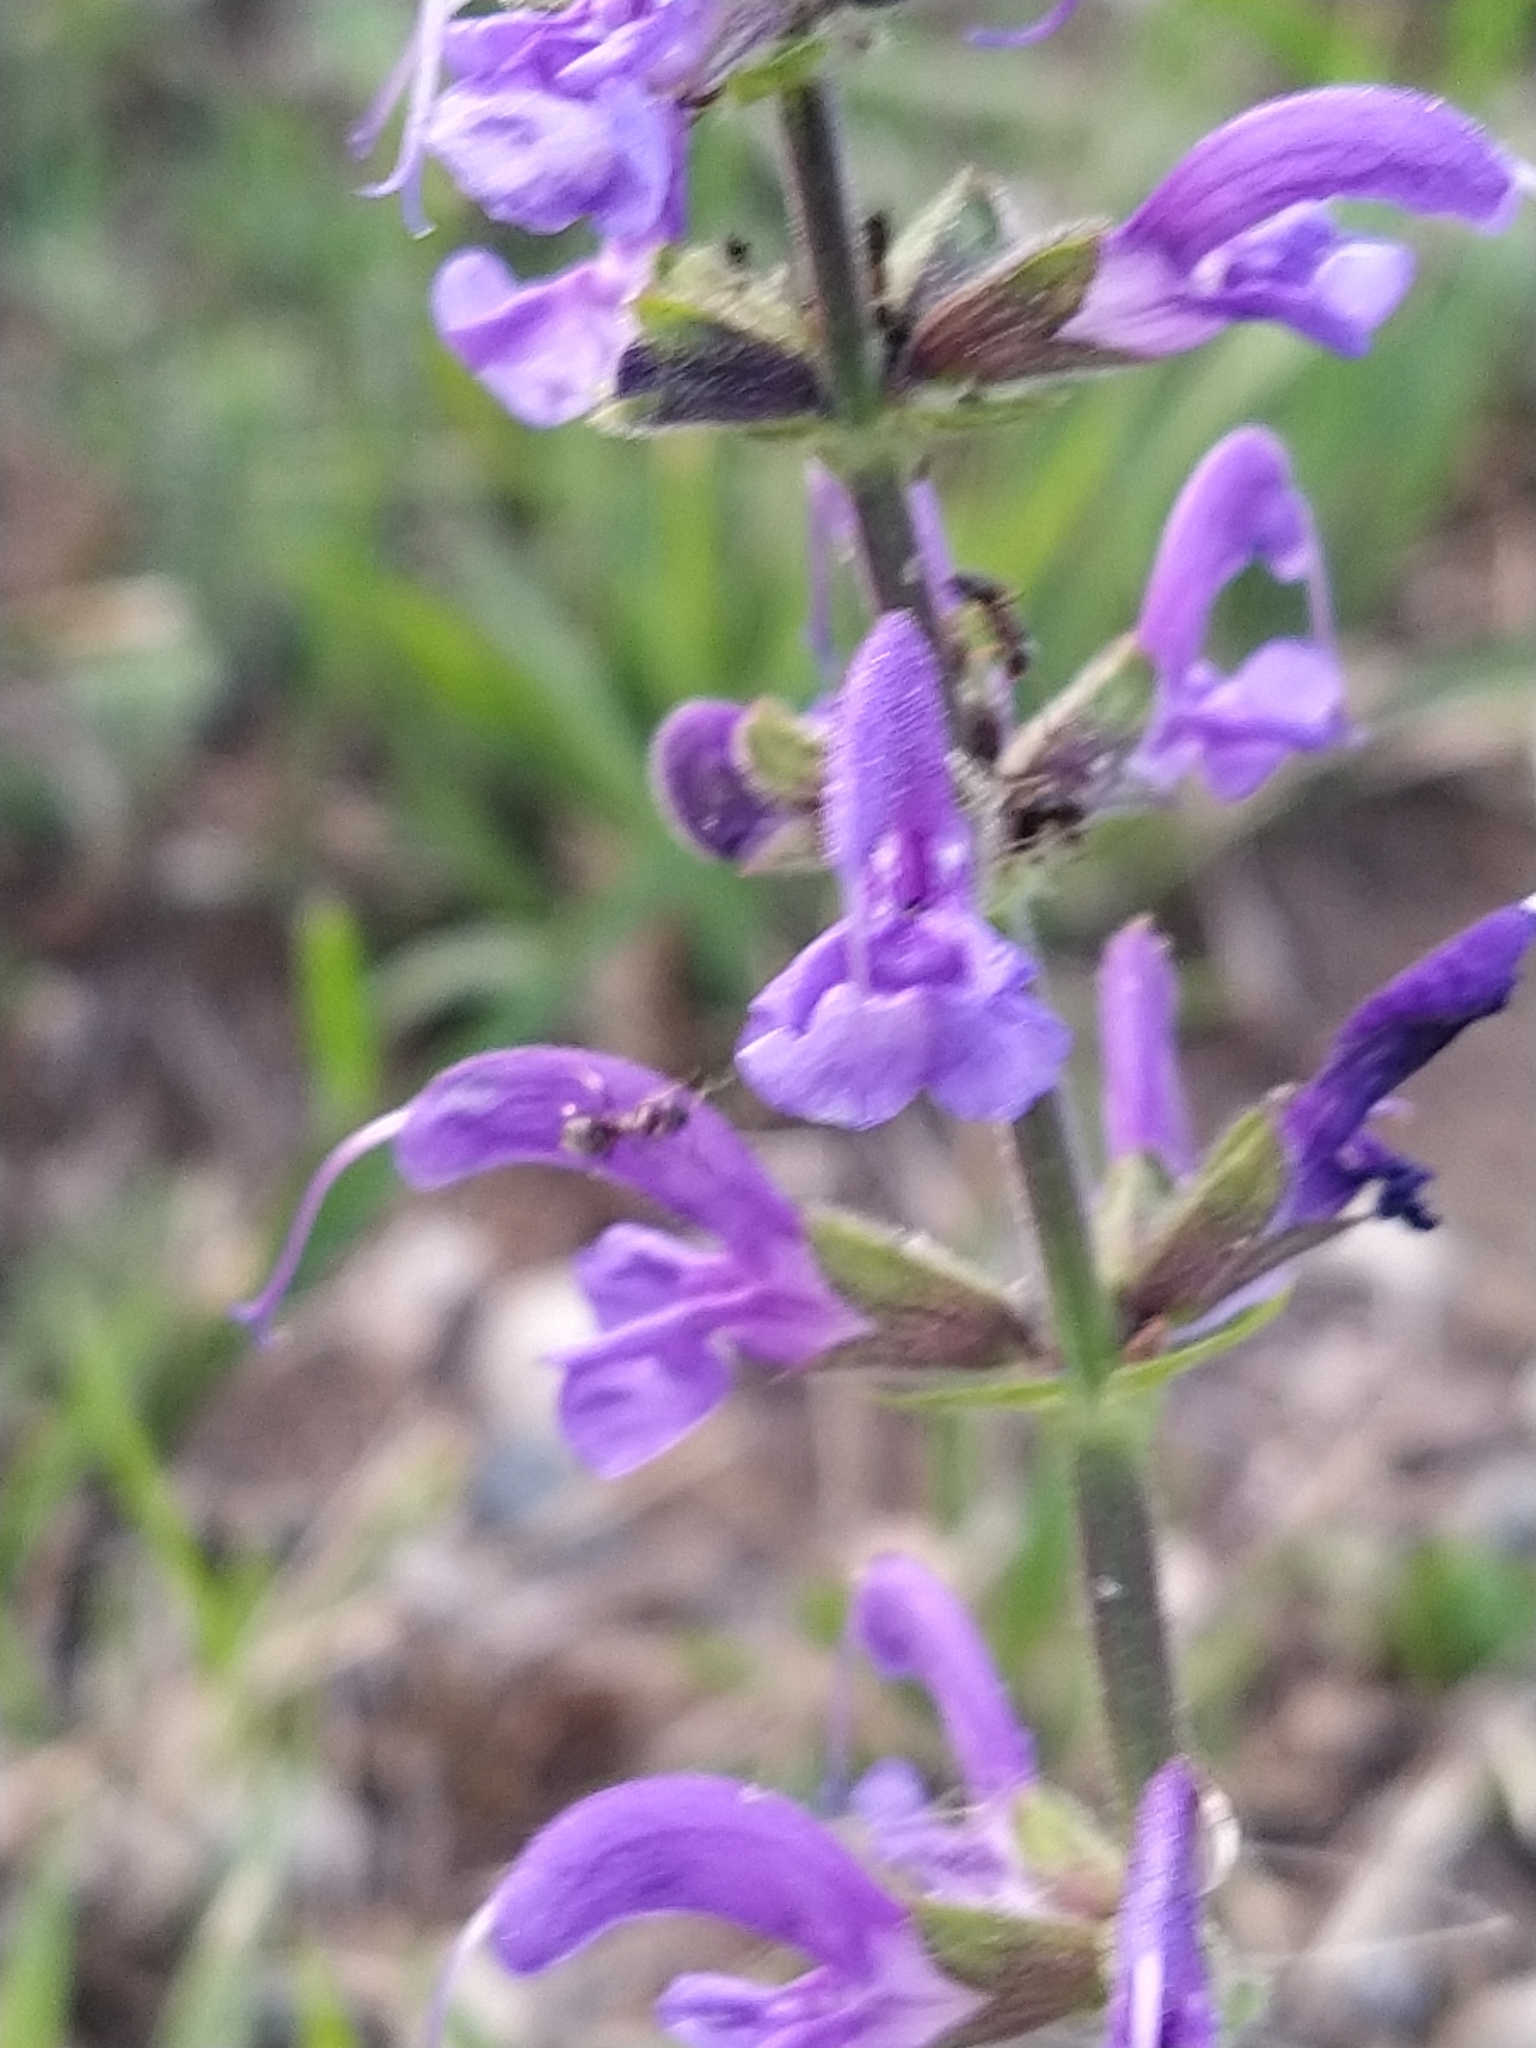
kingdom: Plantae
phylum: Tracheophyta
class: Magnoliopsida
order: Lamiales
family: Lamiaceae
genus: Salvia
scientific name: Salvia pratensis
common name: Meadow sage
